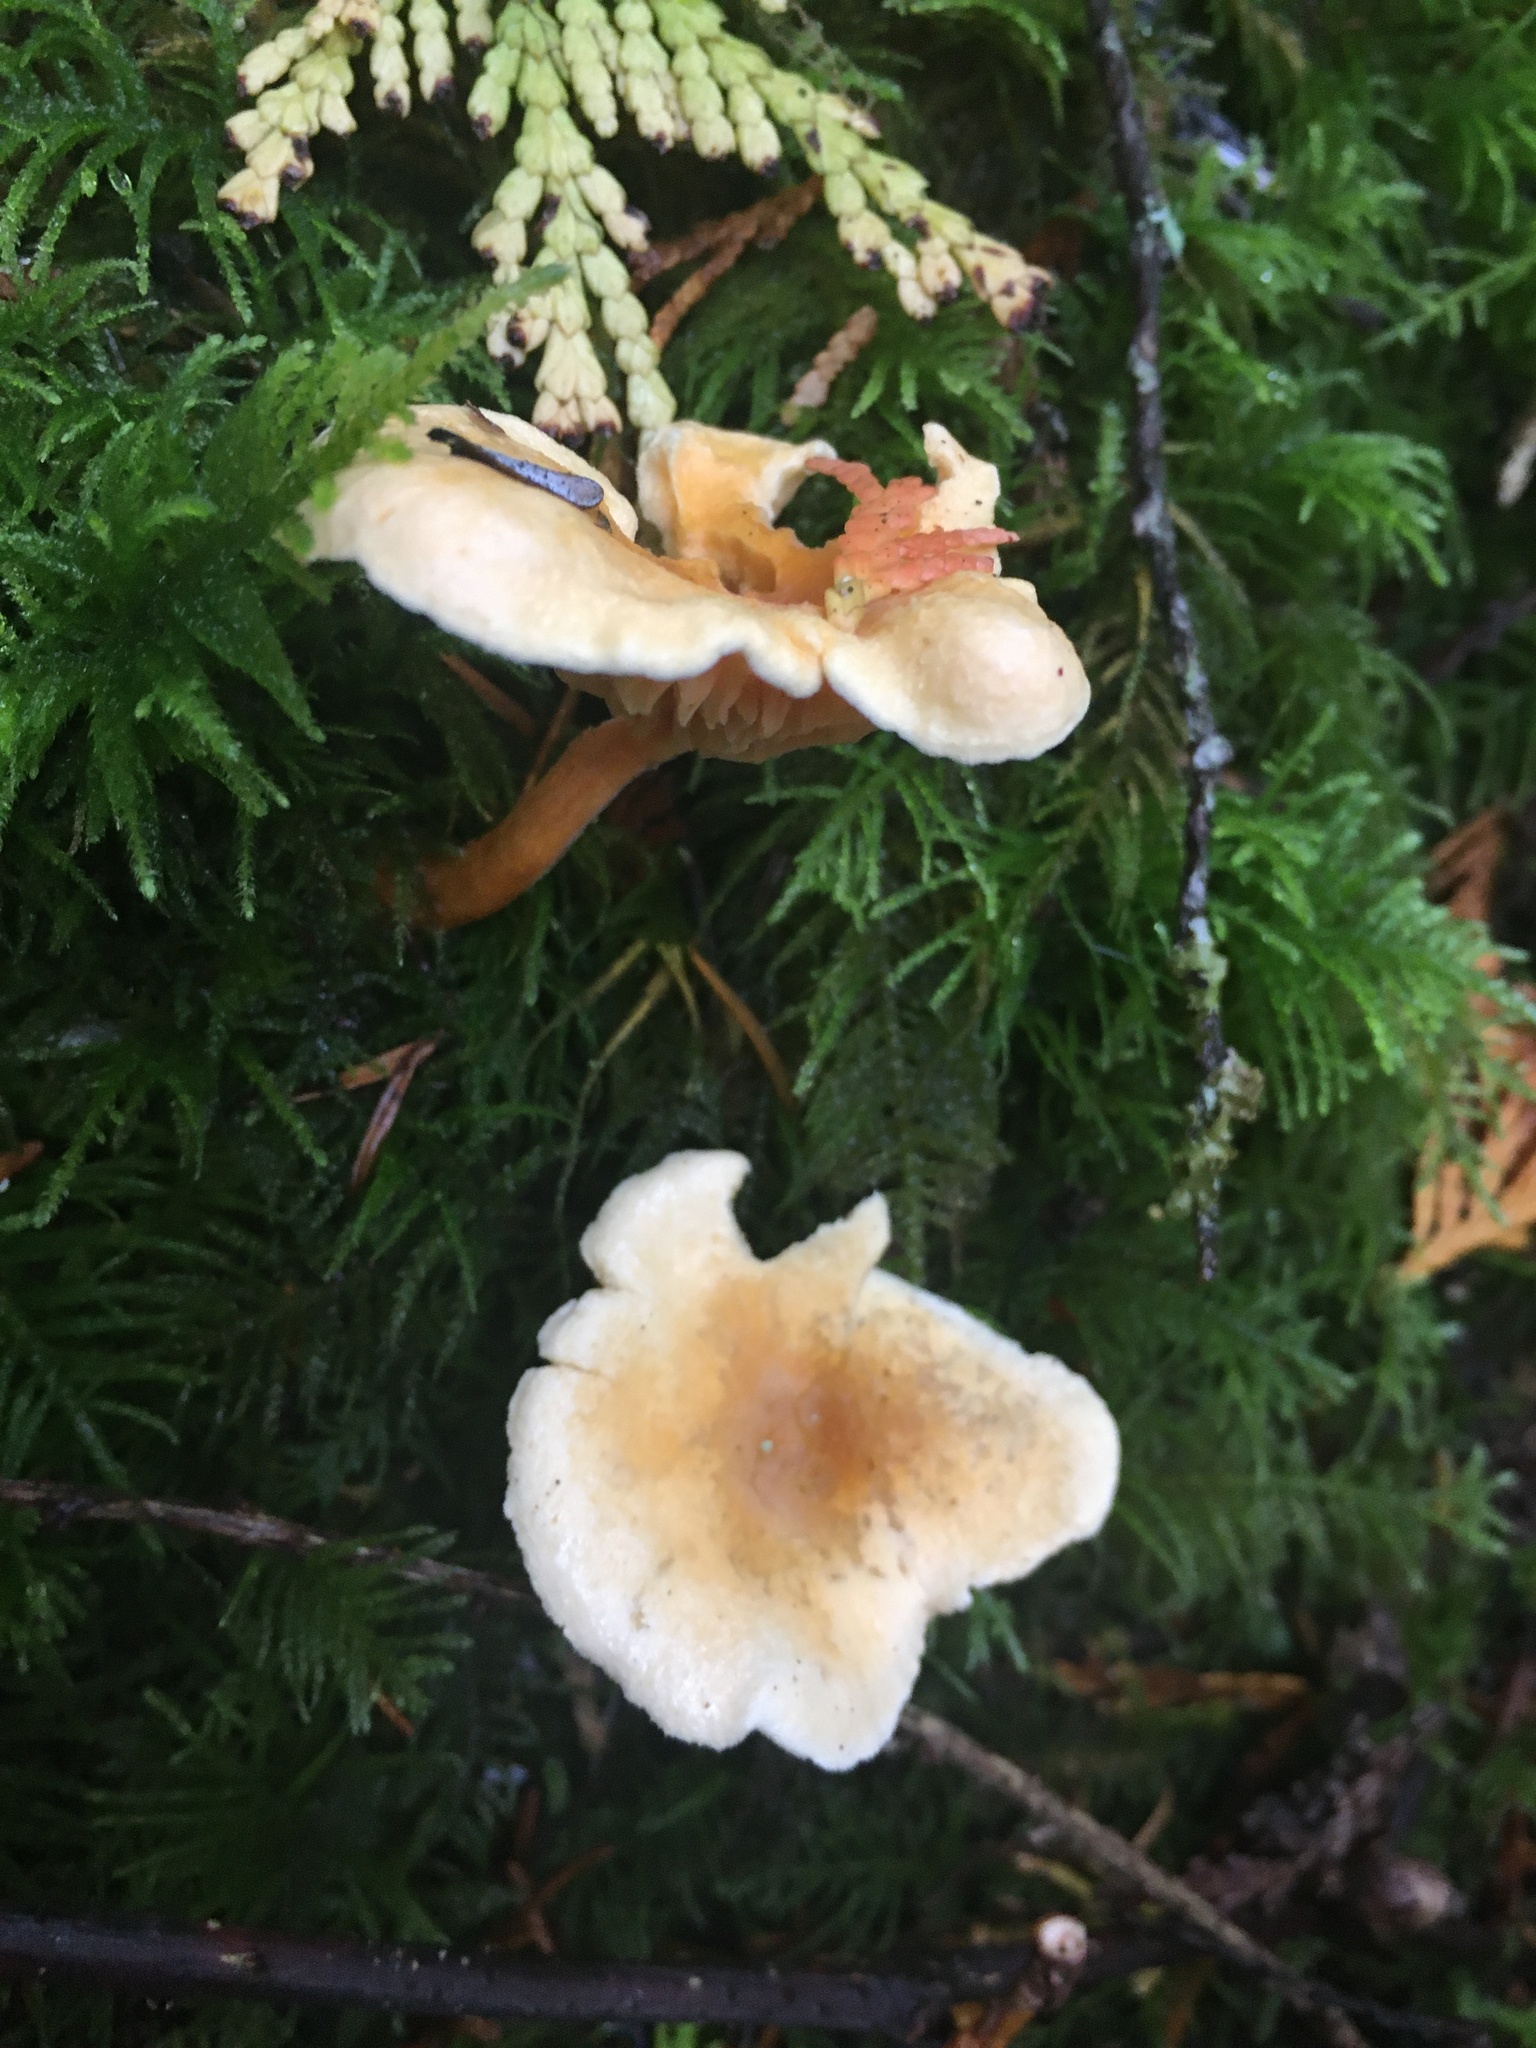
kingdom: Fungi
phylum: Basidiomycota
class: Agaricomycetes
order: Boletales
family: Hygrophoropsidaceae
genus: Hygrophoropsis
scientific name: Hygrophoropsis aurantiaca
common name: False chanterelle
